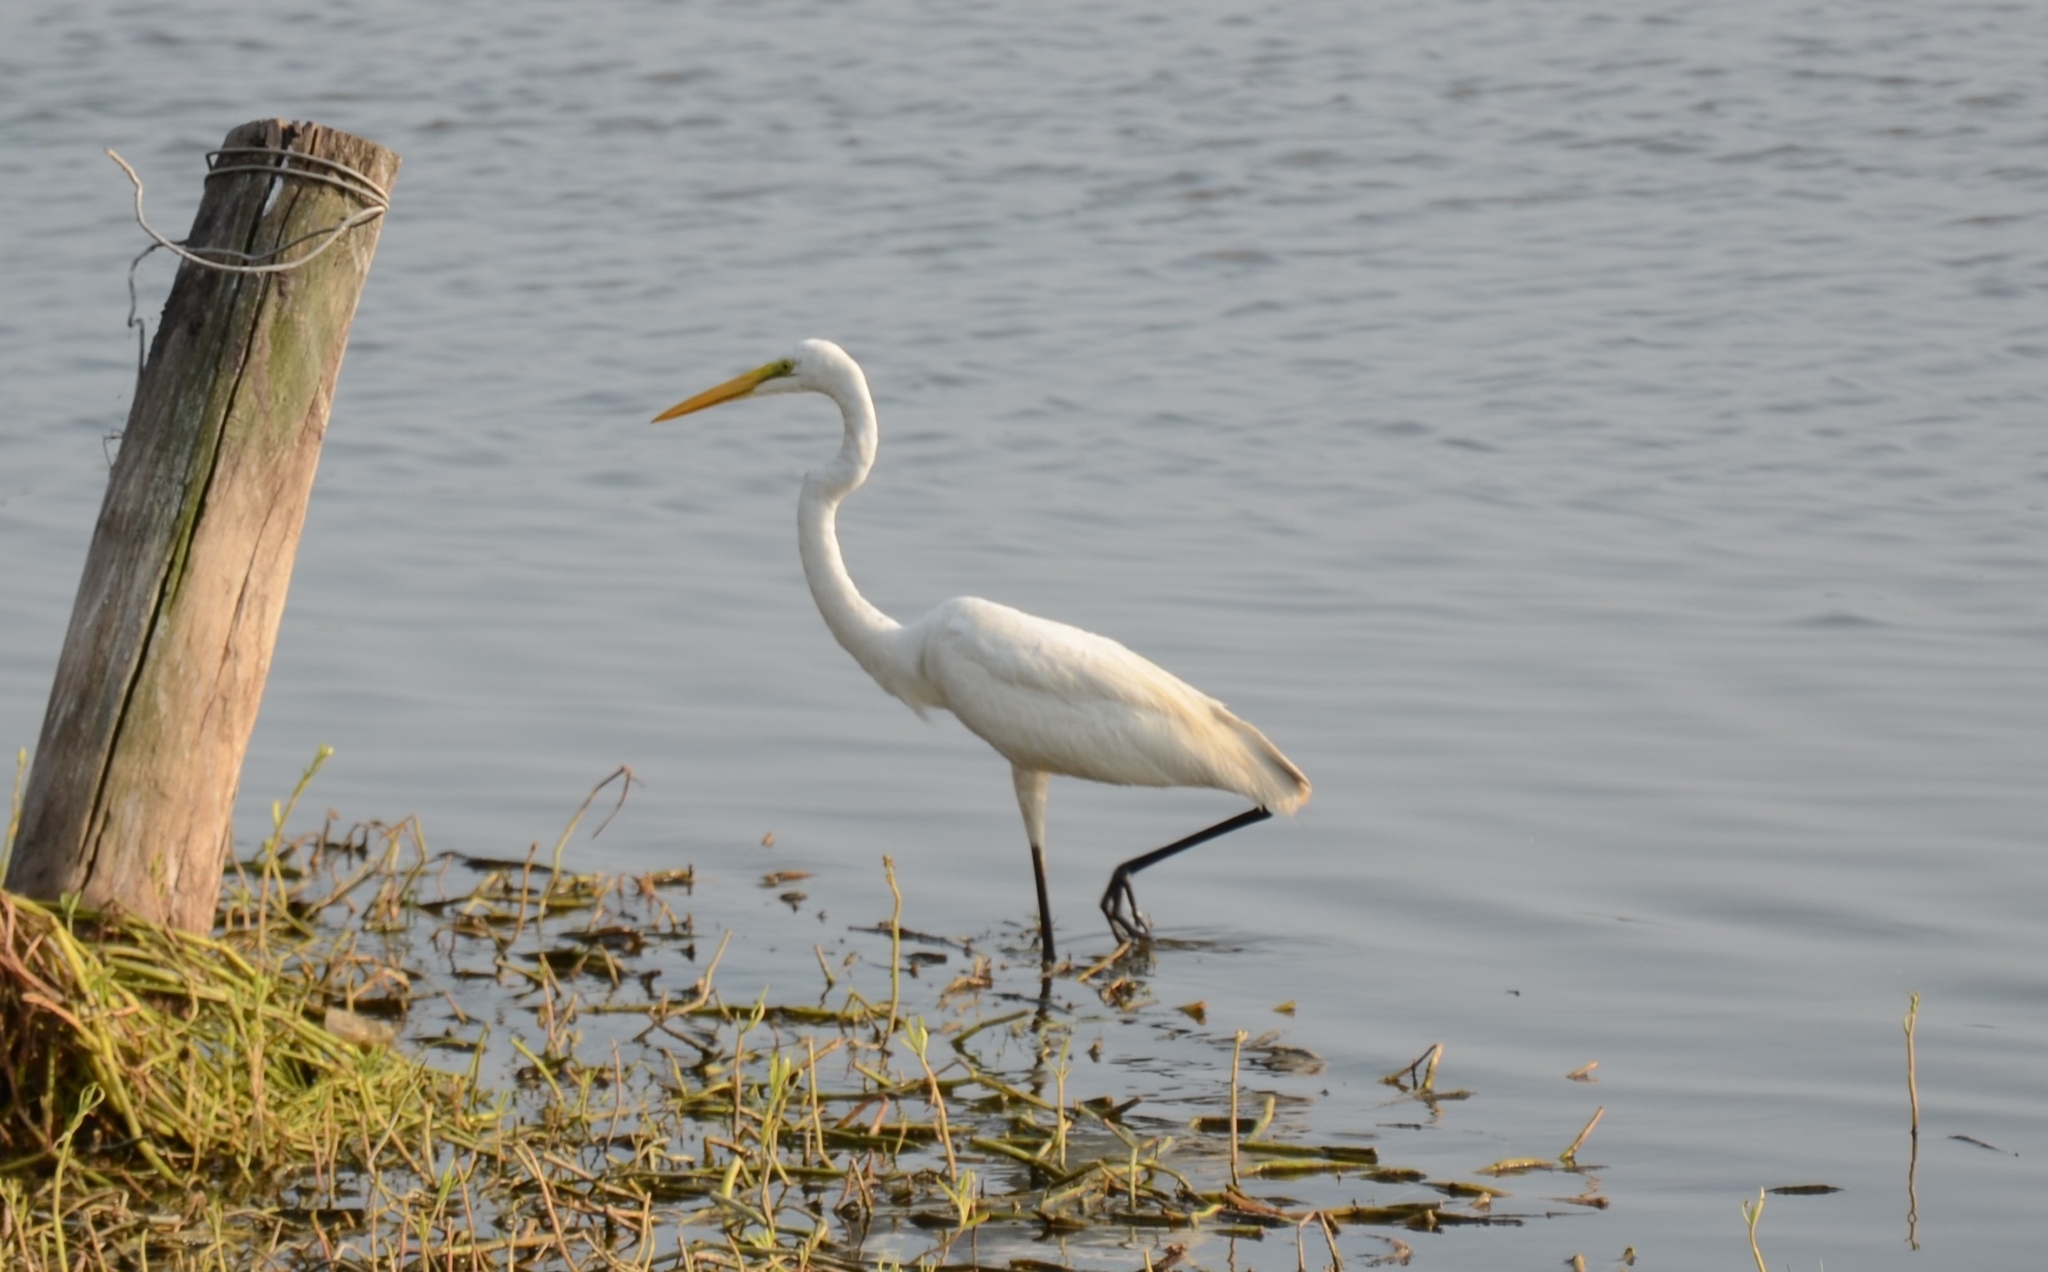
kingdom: Animalia
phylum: Chordata
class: Aves
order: Pelecaniformes
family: Ardeidae
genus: Ardea
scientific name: Ardea alba
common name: Great egret
